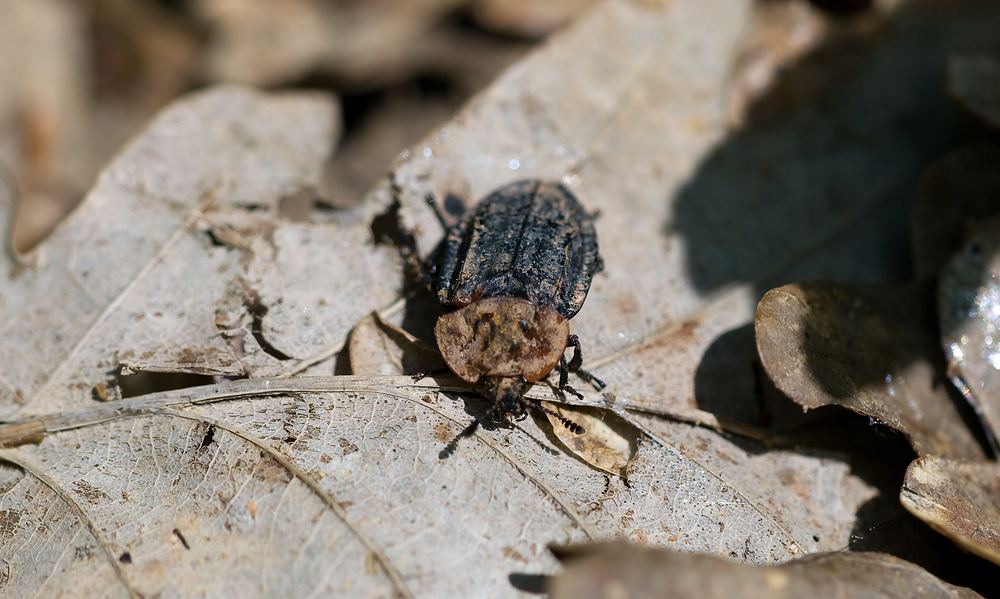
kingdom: Animalia
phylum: Arthropoda
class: Insecta
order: Coleoptera
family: Staphylinidae
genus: Oiceoptoma
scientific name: Oiceoptoma thoracicum
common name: Red-breasted carrion beetle
